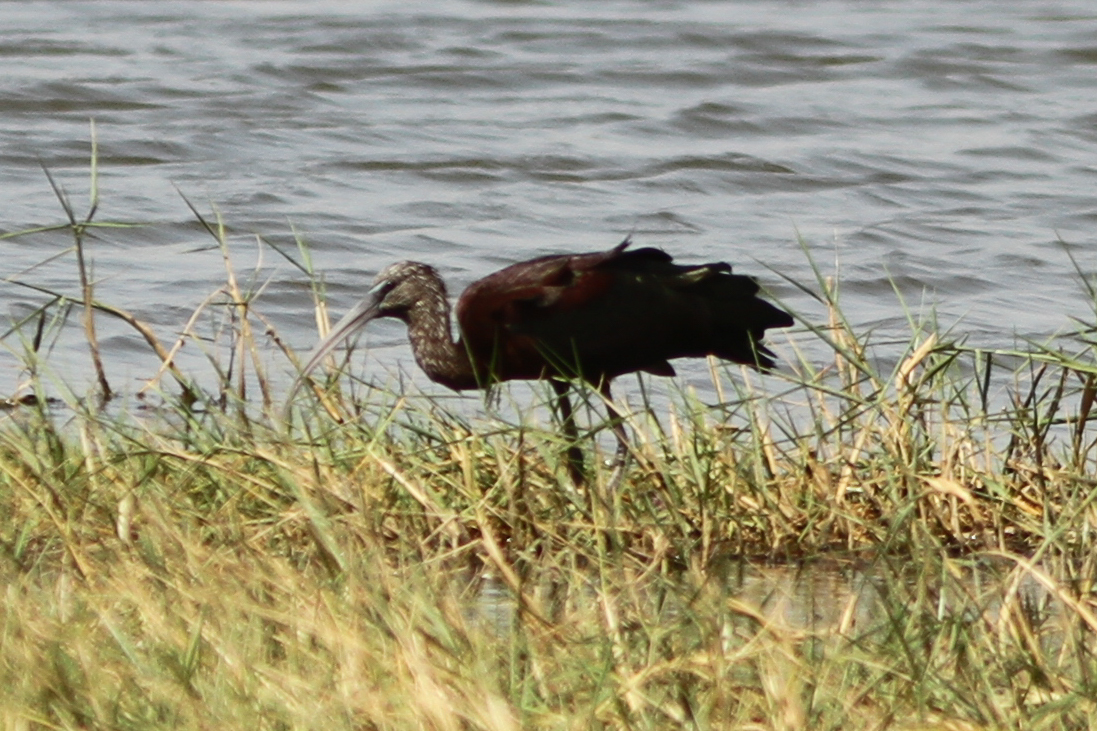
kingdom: Animalia
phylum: Chordata
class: Aves
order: Pelecaniformes
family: Threskiornithidae
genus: Plegadis
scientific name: Plegadis falcinellus
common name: Glossy ibis
